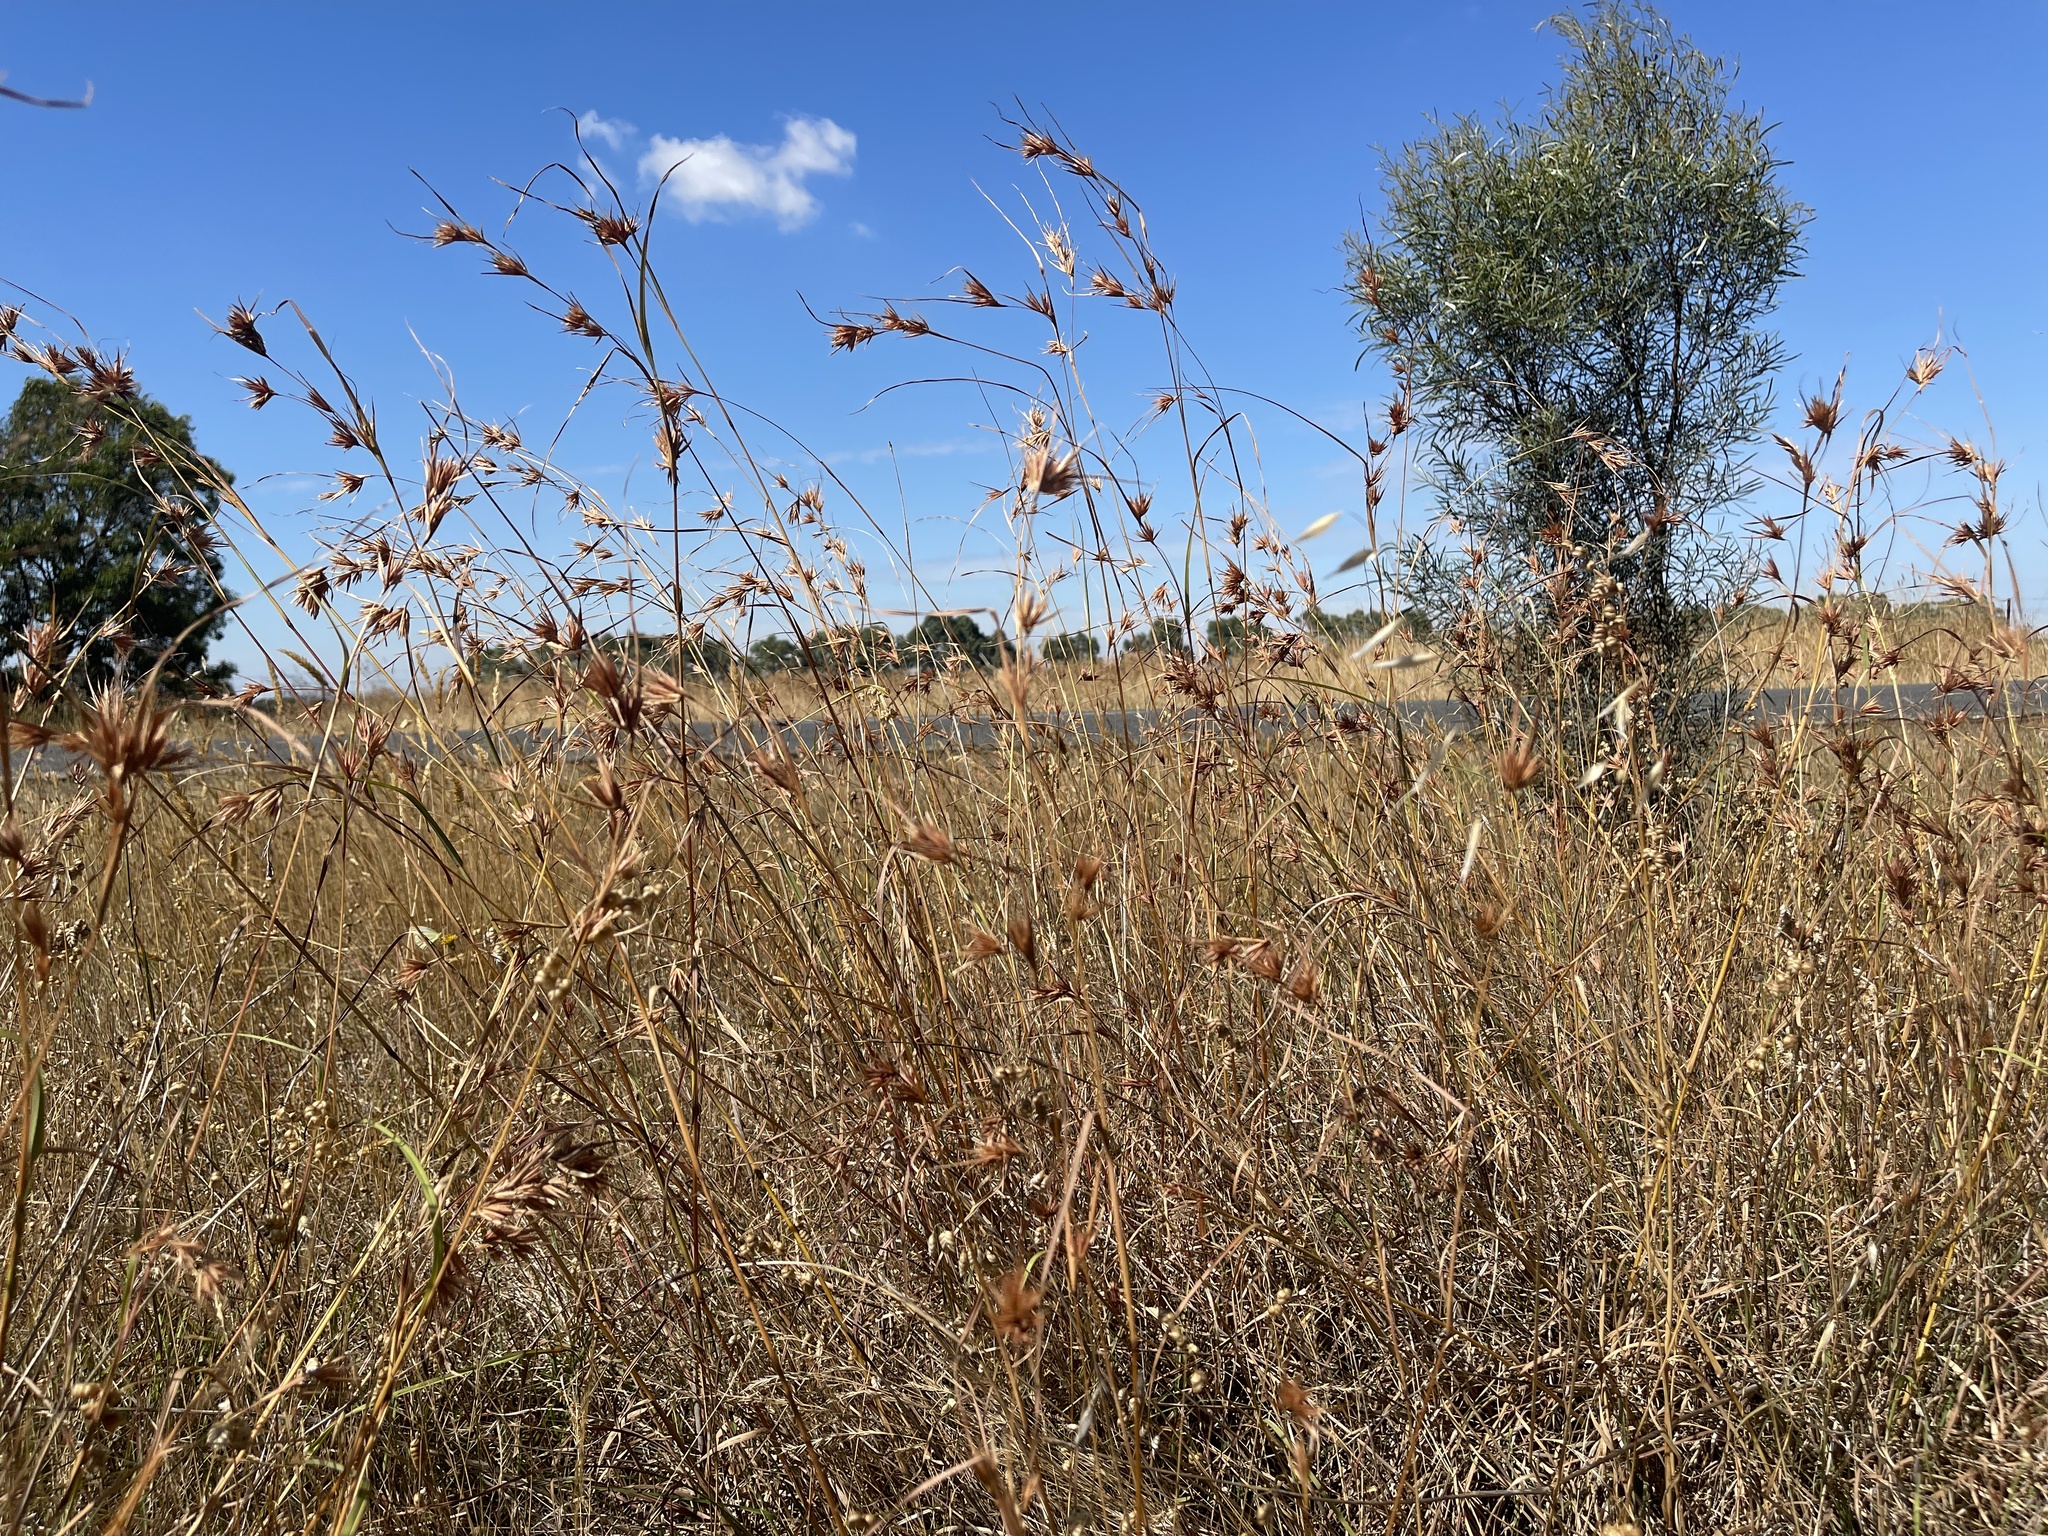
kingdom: Plantae
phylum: Tracheophyta
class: Liliopsida
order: Poales
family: Poaceae
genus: Themeda
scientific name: Themeda triandra
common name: Kangaroo grass
